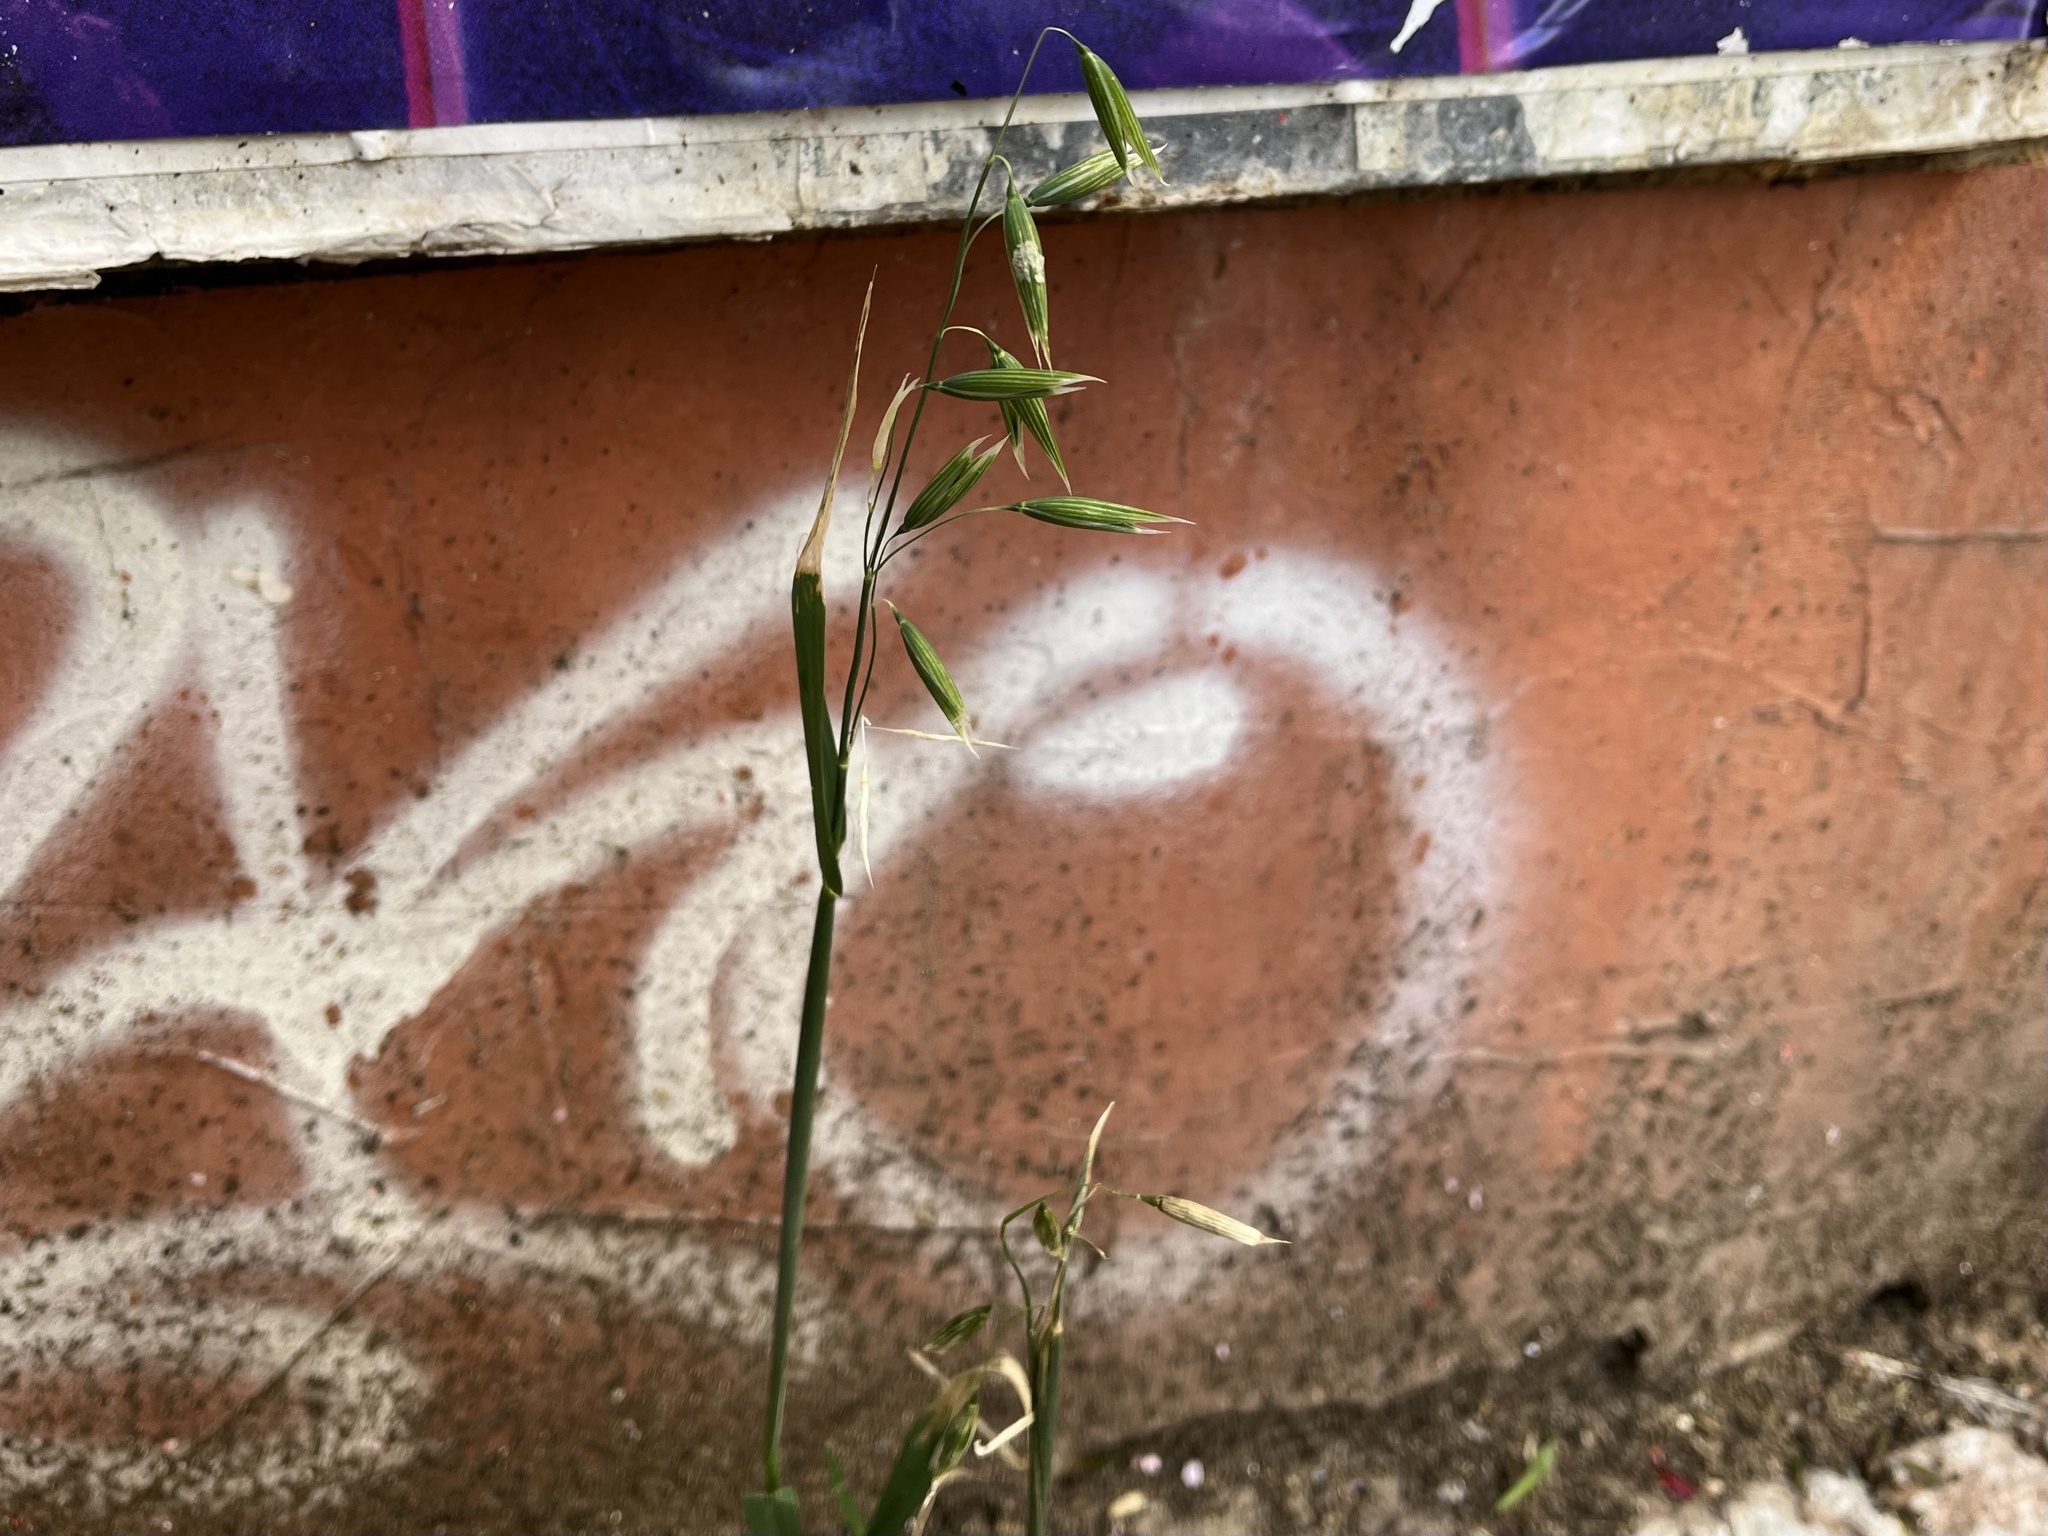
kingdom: Plantae
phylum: Tracheophyta
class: Liliopsida
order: Poales
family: Poaceae
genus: Avena
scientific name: Avena sativa
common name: Oat
